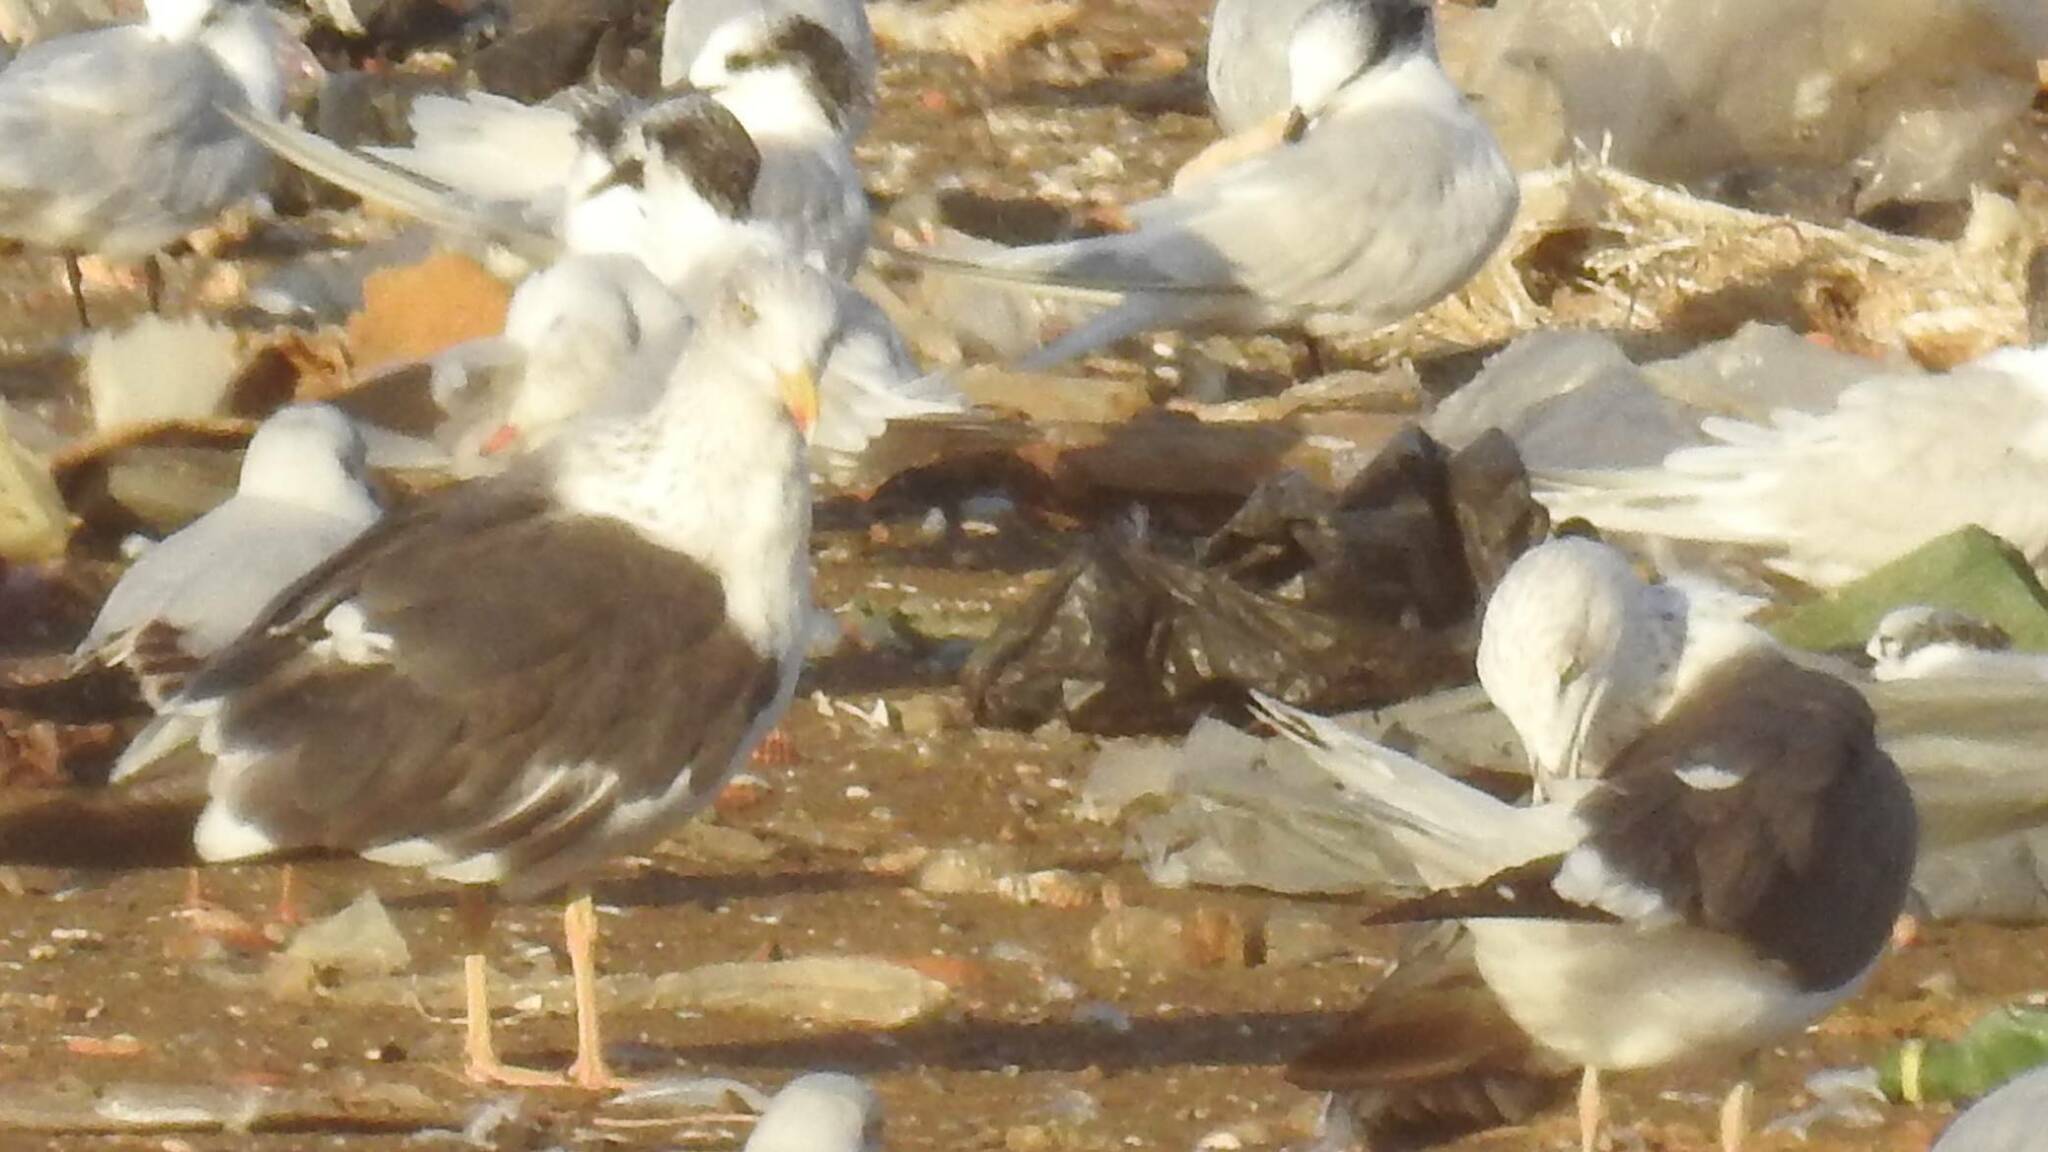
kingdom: Animalia
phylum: Chordata
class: Aves
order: Charadriiformes
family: Laridae
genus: Larus
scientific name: Larus fuscus
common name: Lesser black-backed gull
